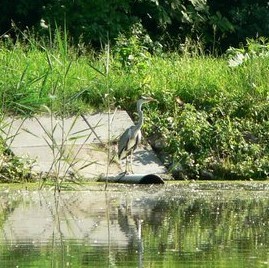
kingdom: Animalia
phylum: Chordata
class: Aves
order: Pelecaniformes
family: Ardeidae
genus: Ardea
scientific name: Ardea cinerea
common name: Grey heron
